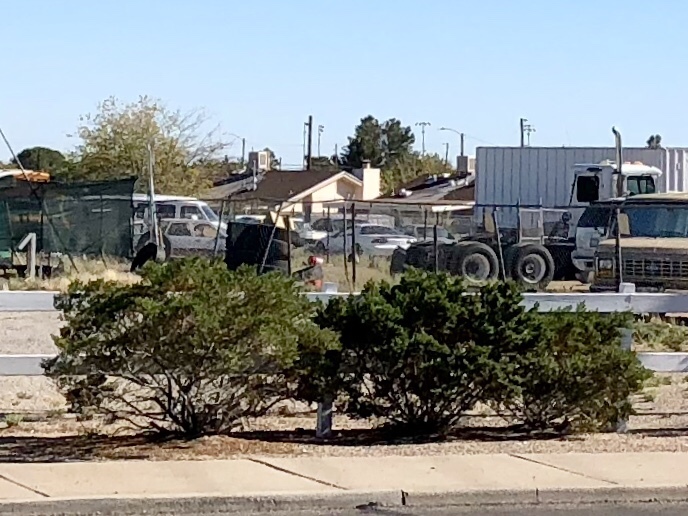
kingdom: Plantae
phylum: Tracheophyta
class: Magnoliopsida
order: Zygophyllales
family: Zygophyllaceae
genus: Larrea
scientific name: Larrea tridentata
